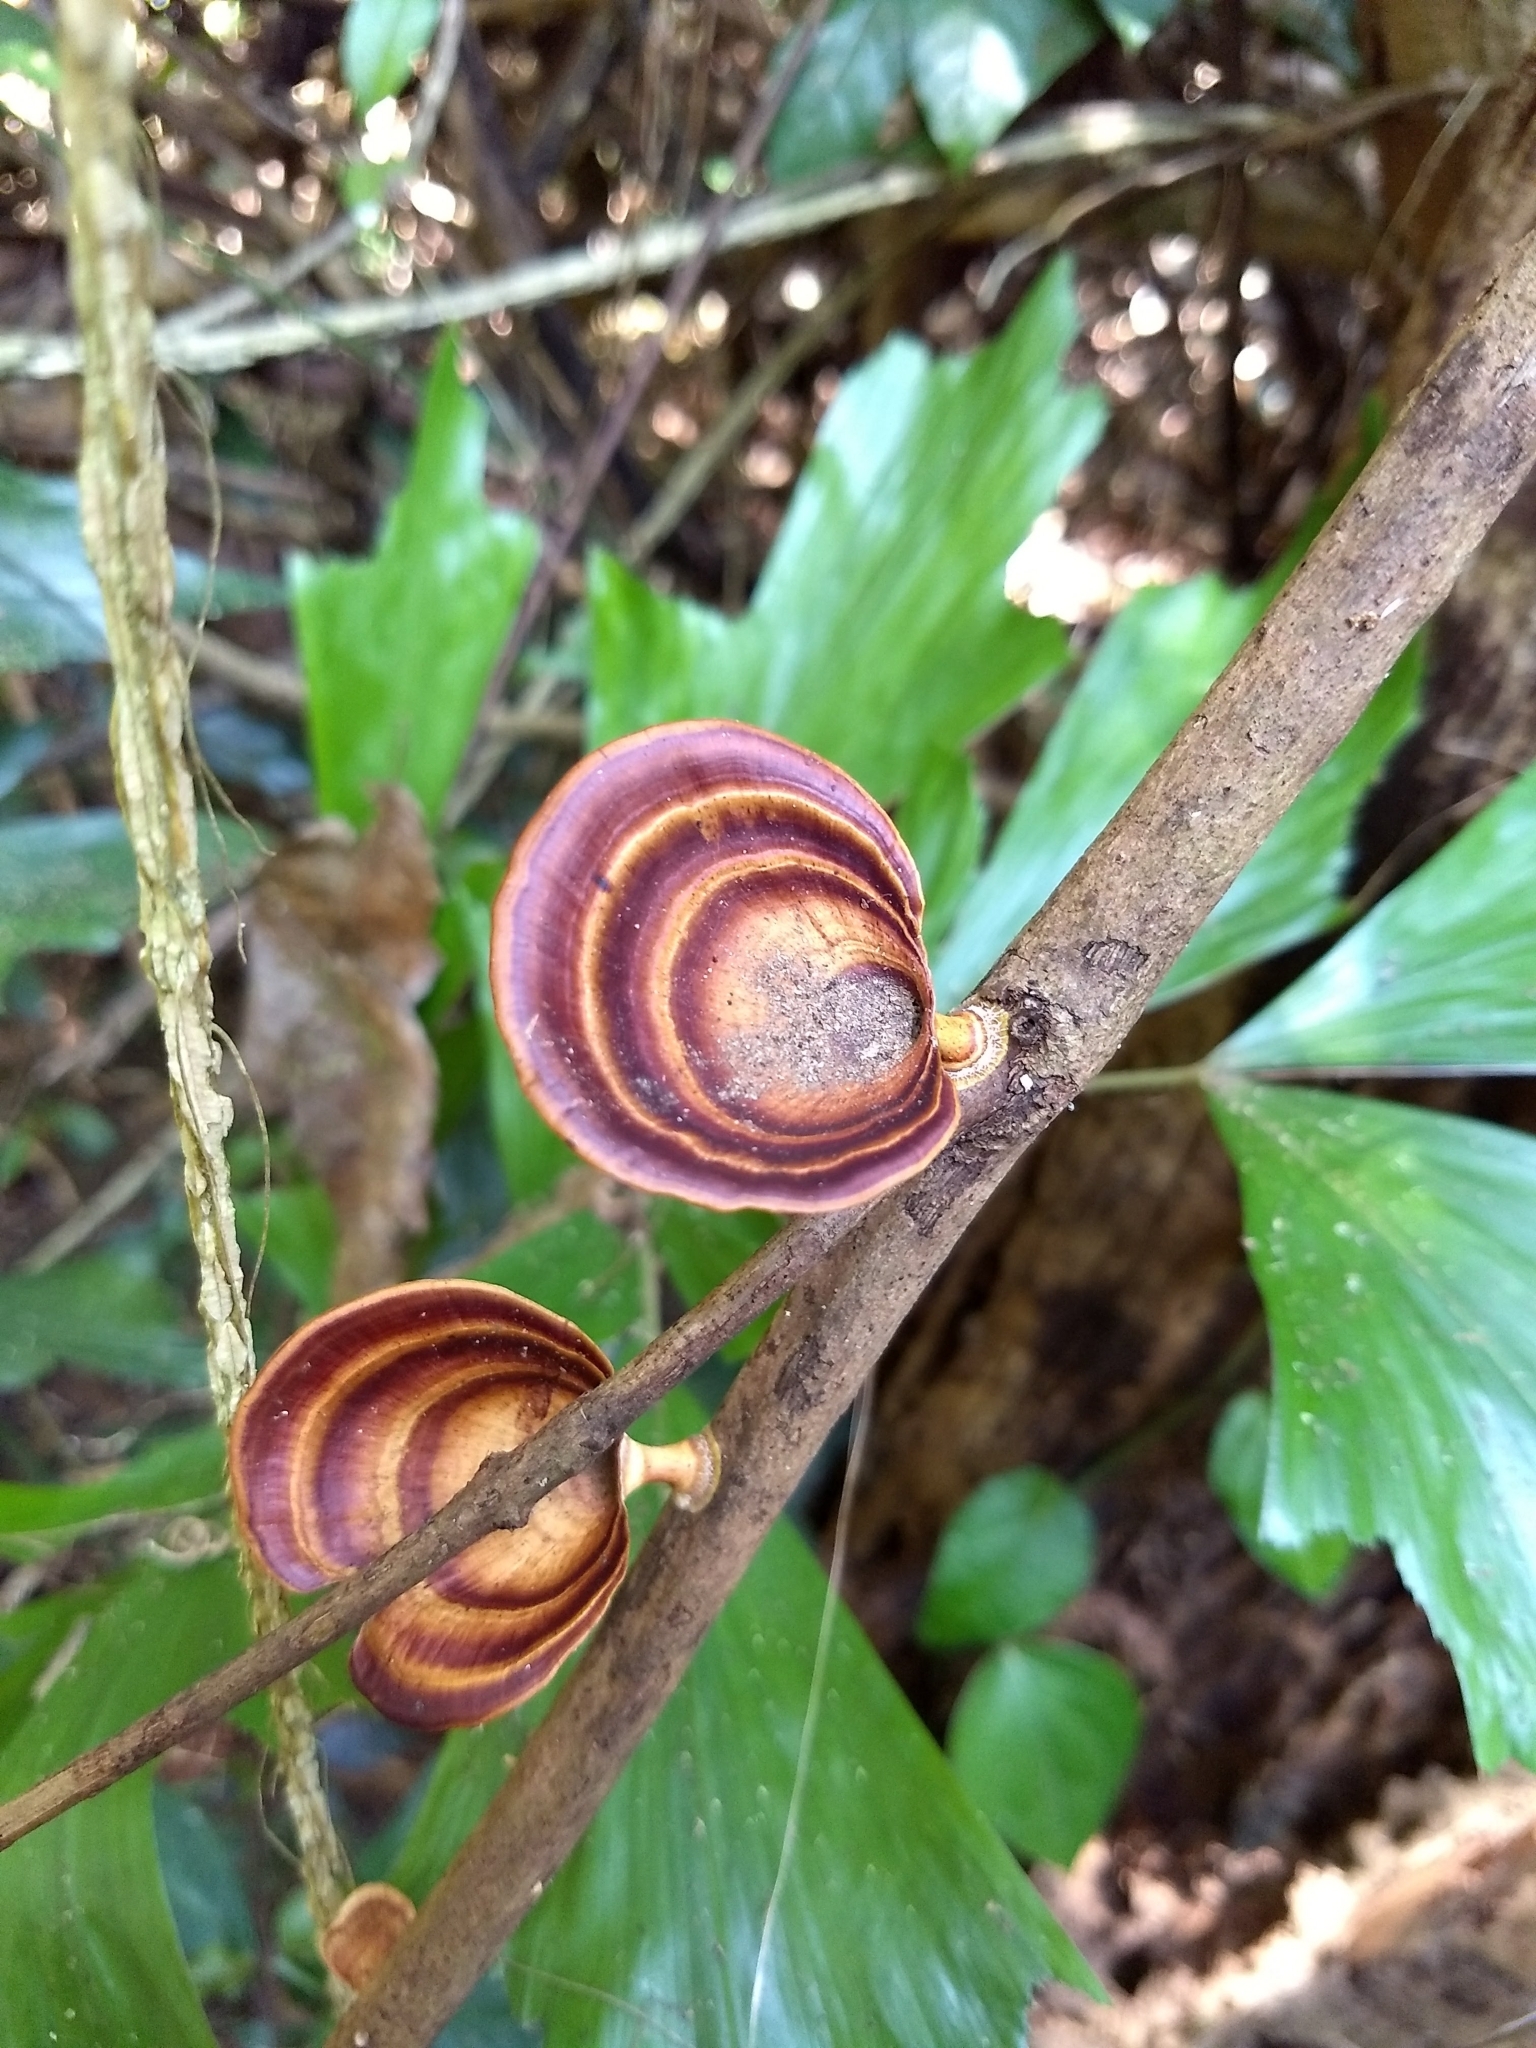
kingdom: Fungi
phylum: Basidiomycota
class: Agaricomycetes
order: Polyporales
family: Polyporaceae
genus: Microporus
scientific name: Microporus xanthopus
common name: Yellow-stemmed micropore
